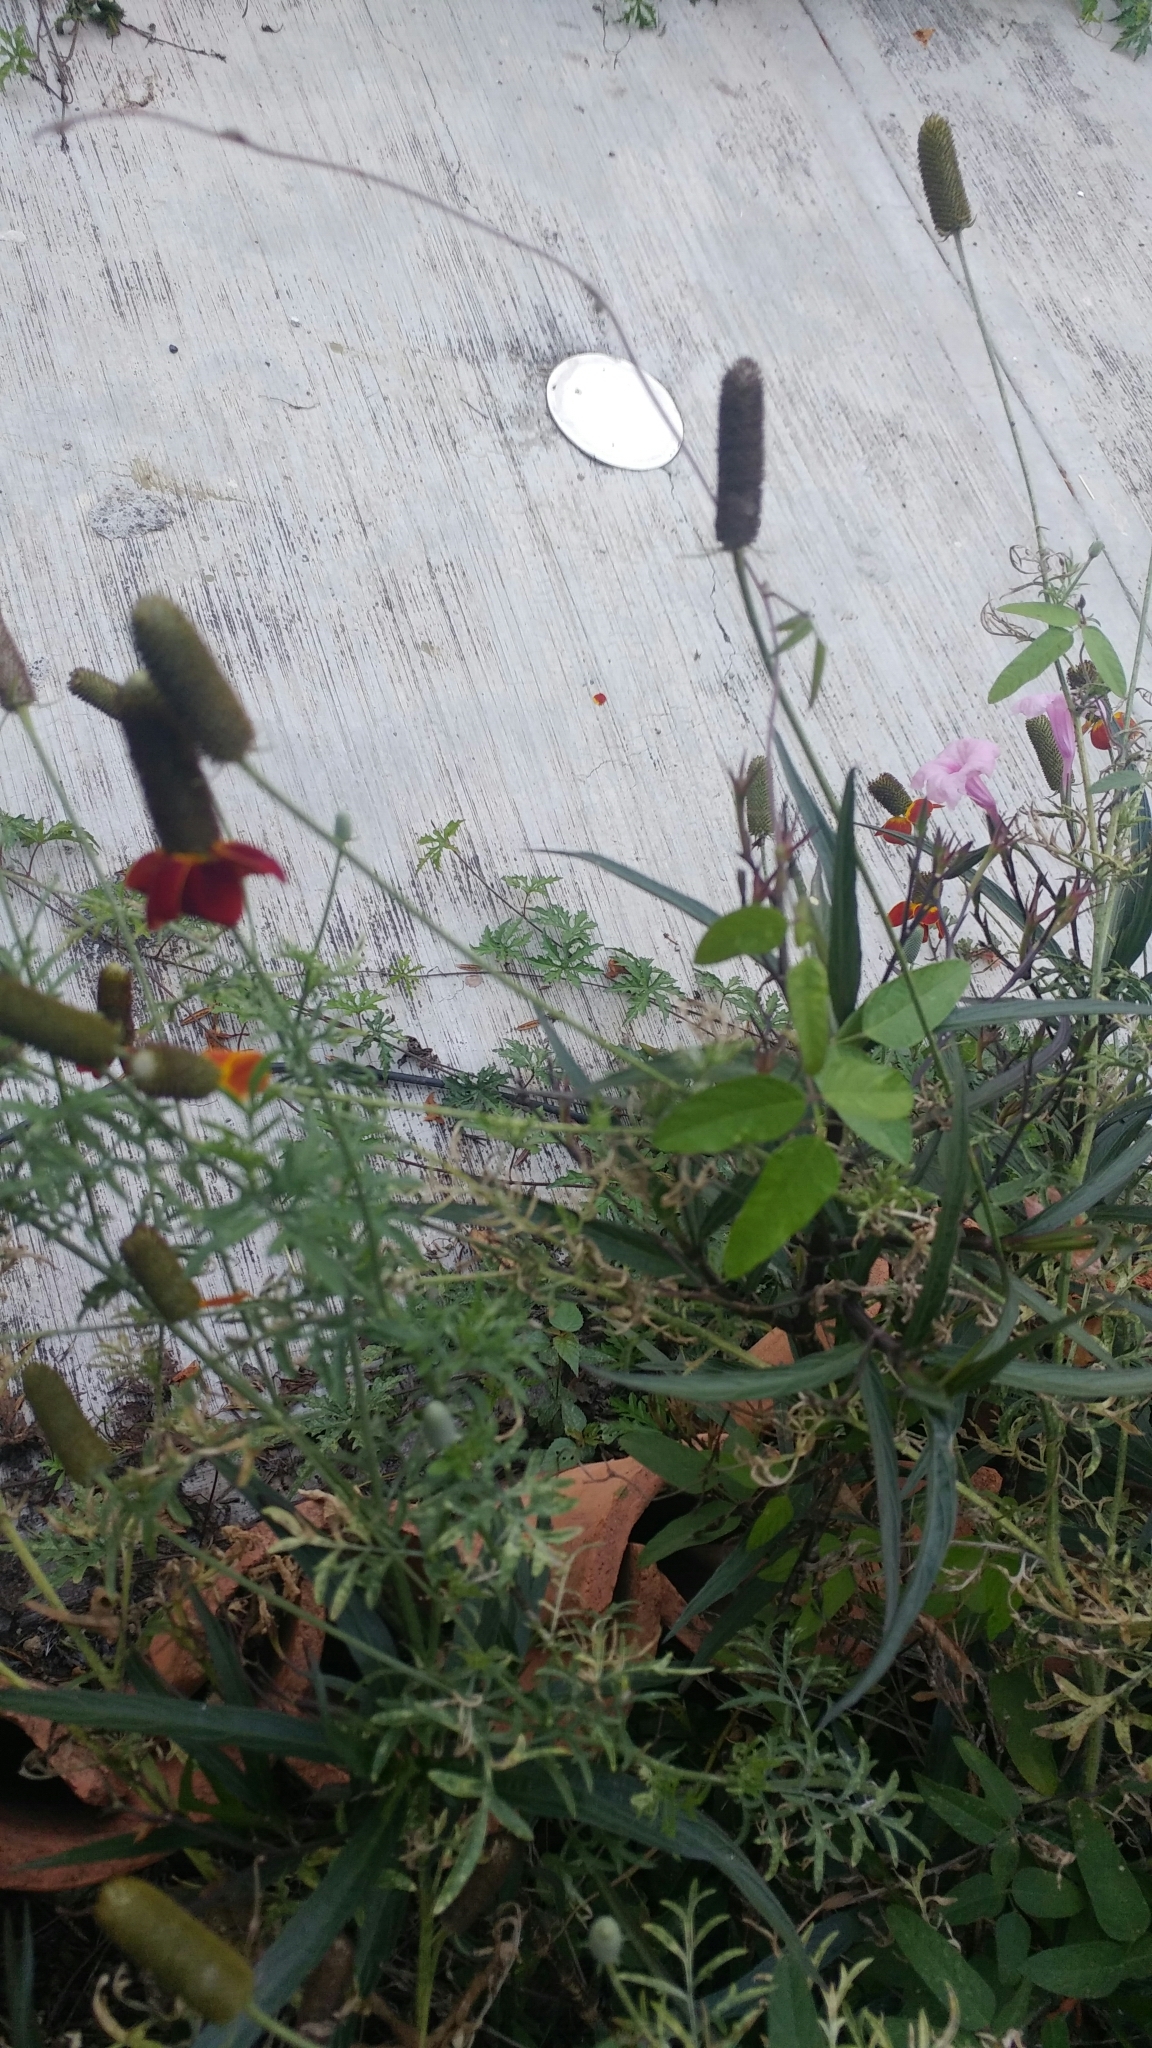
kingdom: Plantae
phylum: Tracheophyta
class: Magnoliopsida
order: Asterales
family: Asteraceae
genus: Ratibida
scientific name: Ratibida columnifera
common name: Prairie coneflower
